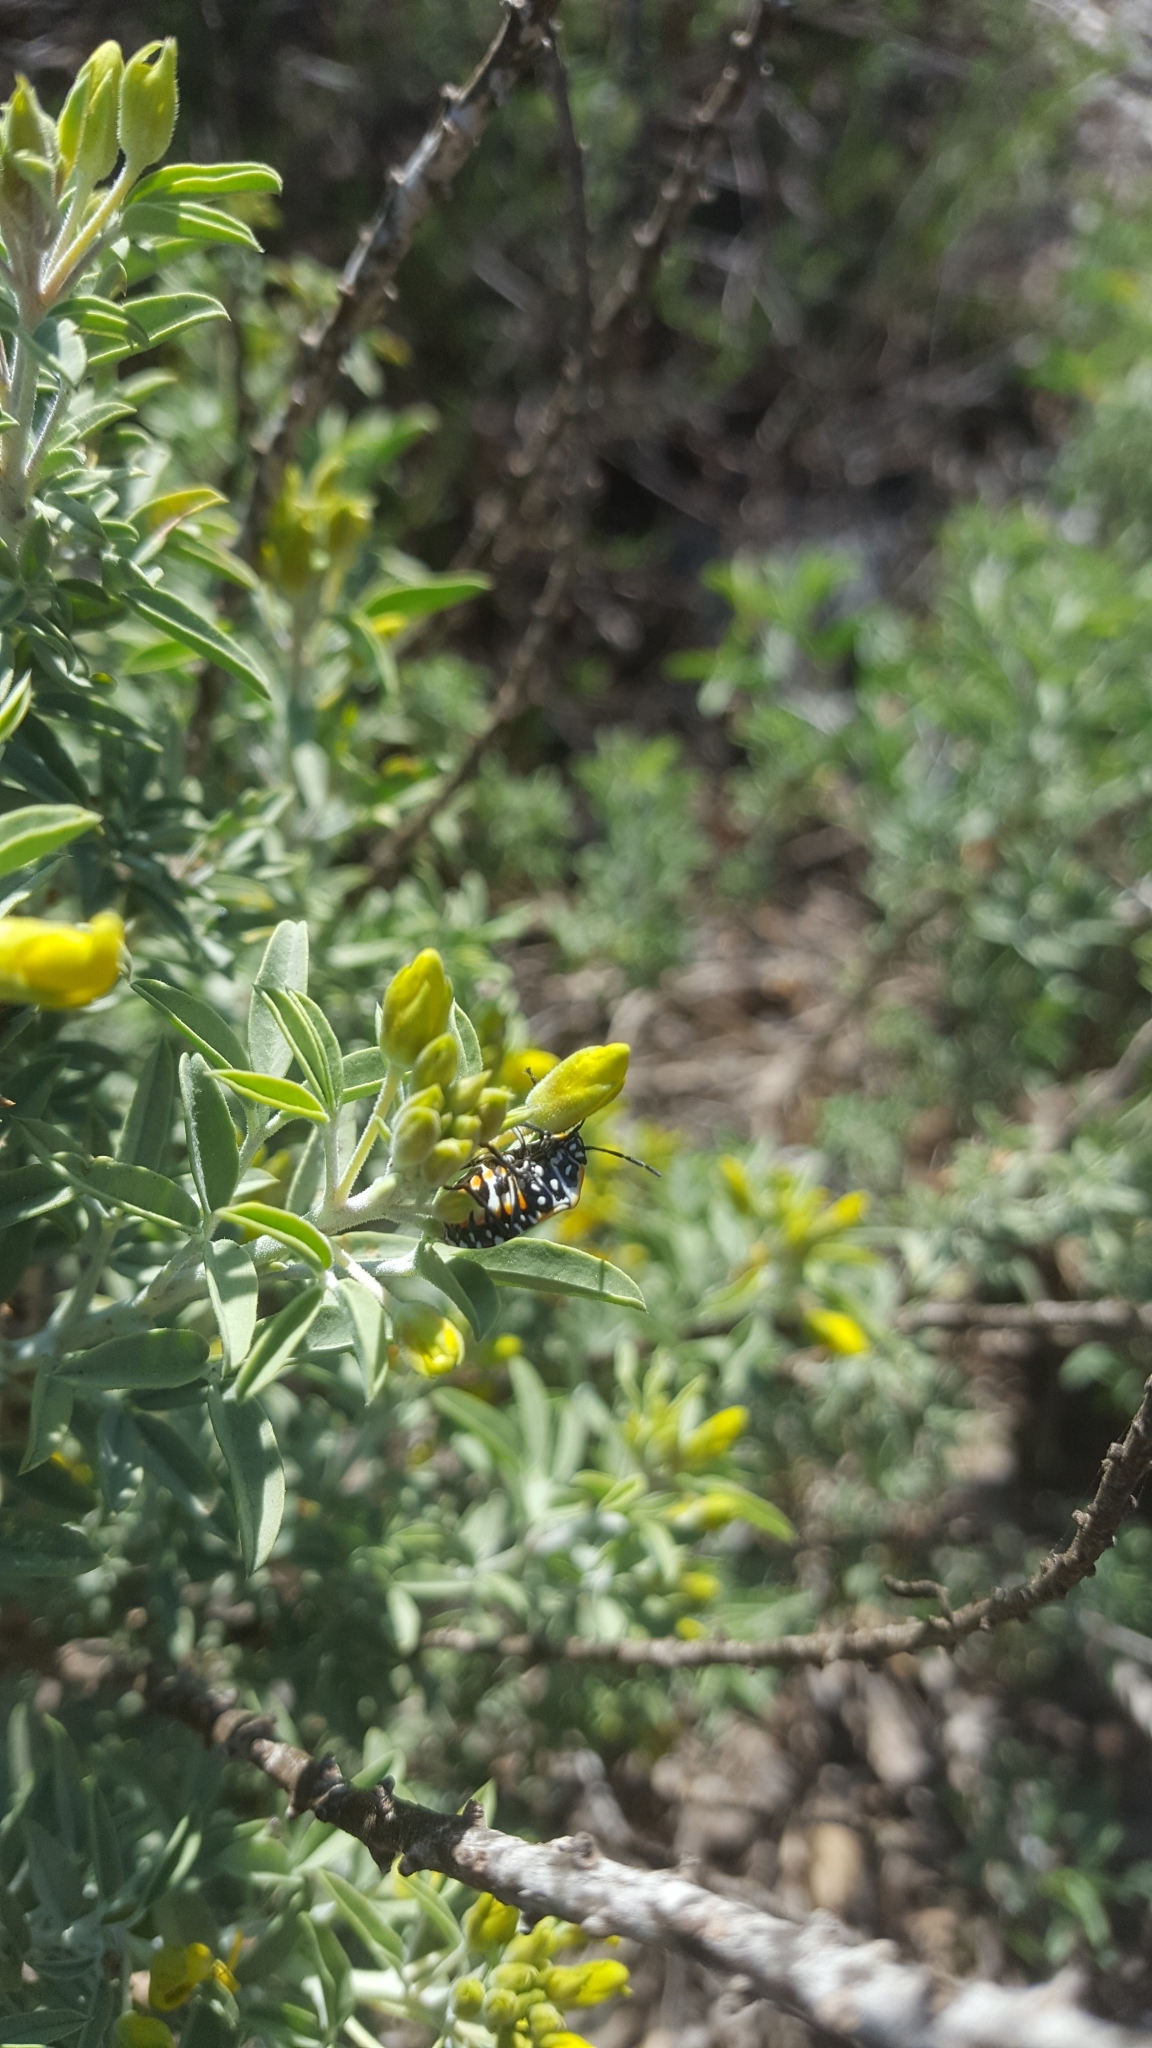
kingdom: Animalia
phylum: Arthropoda
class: Insecta
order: Hemiptera
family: Pentatomidae
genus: Murgantia
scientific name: Murgantia histrionica
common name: Harlequin bug
